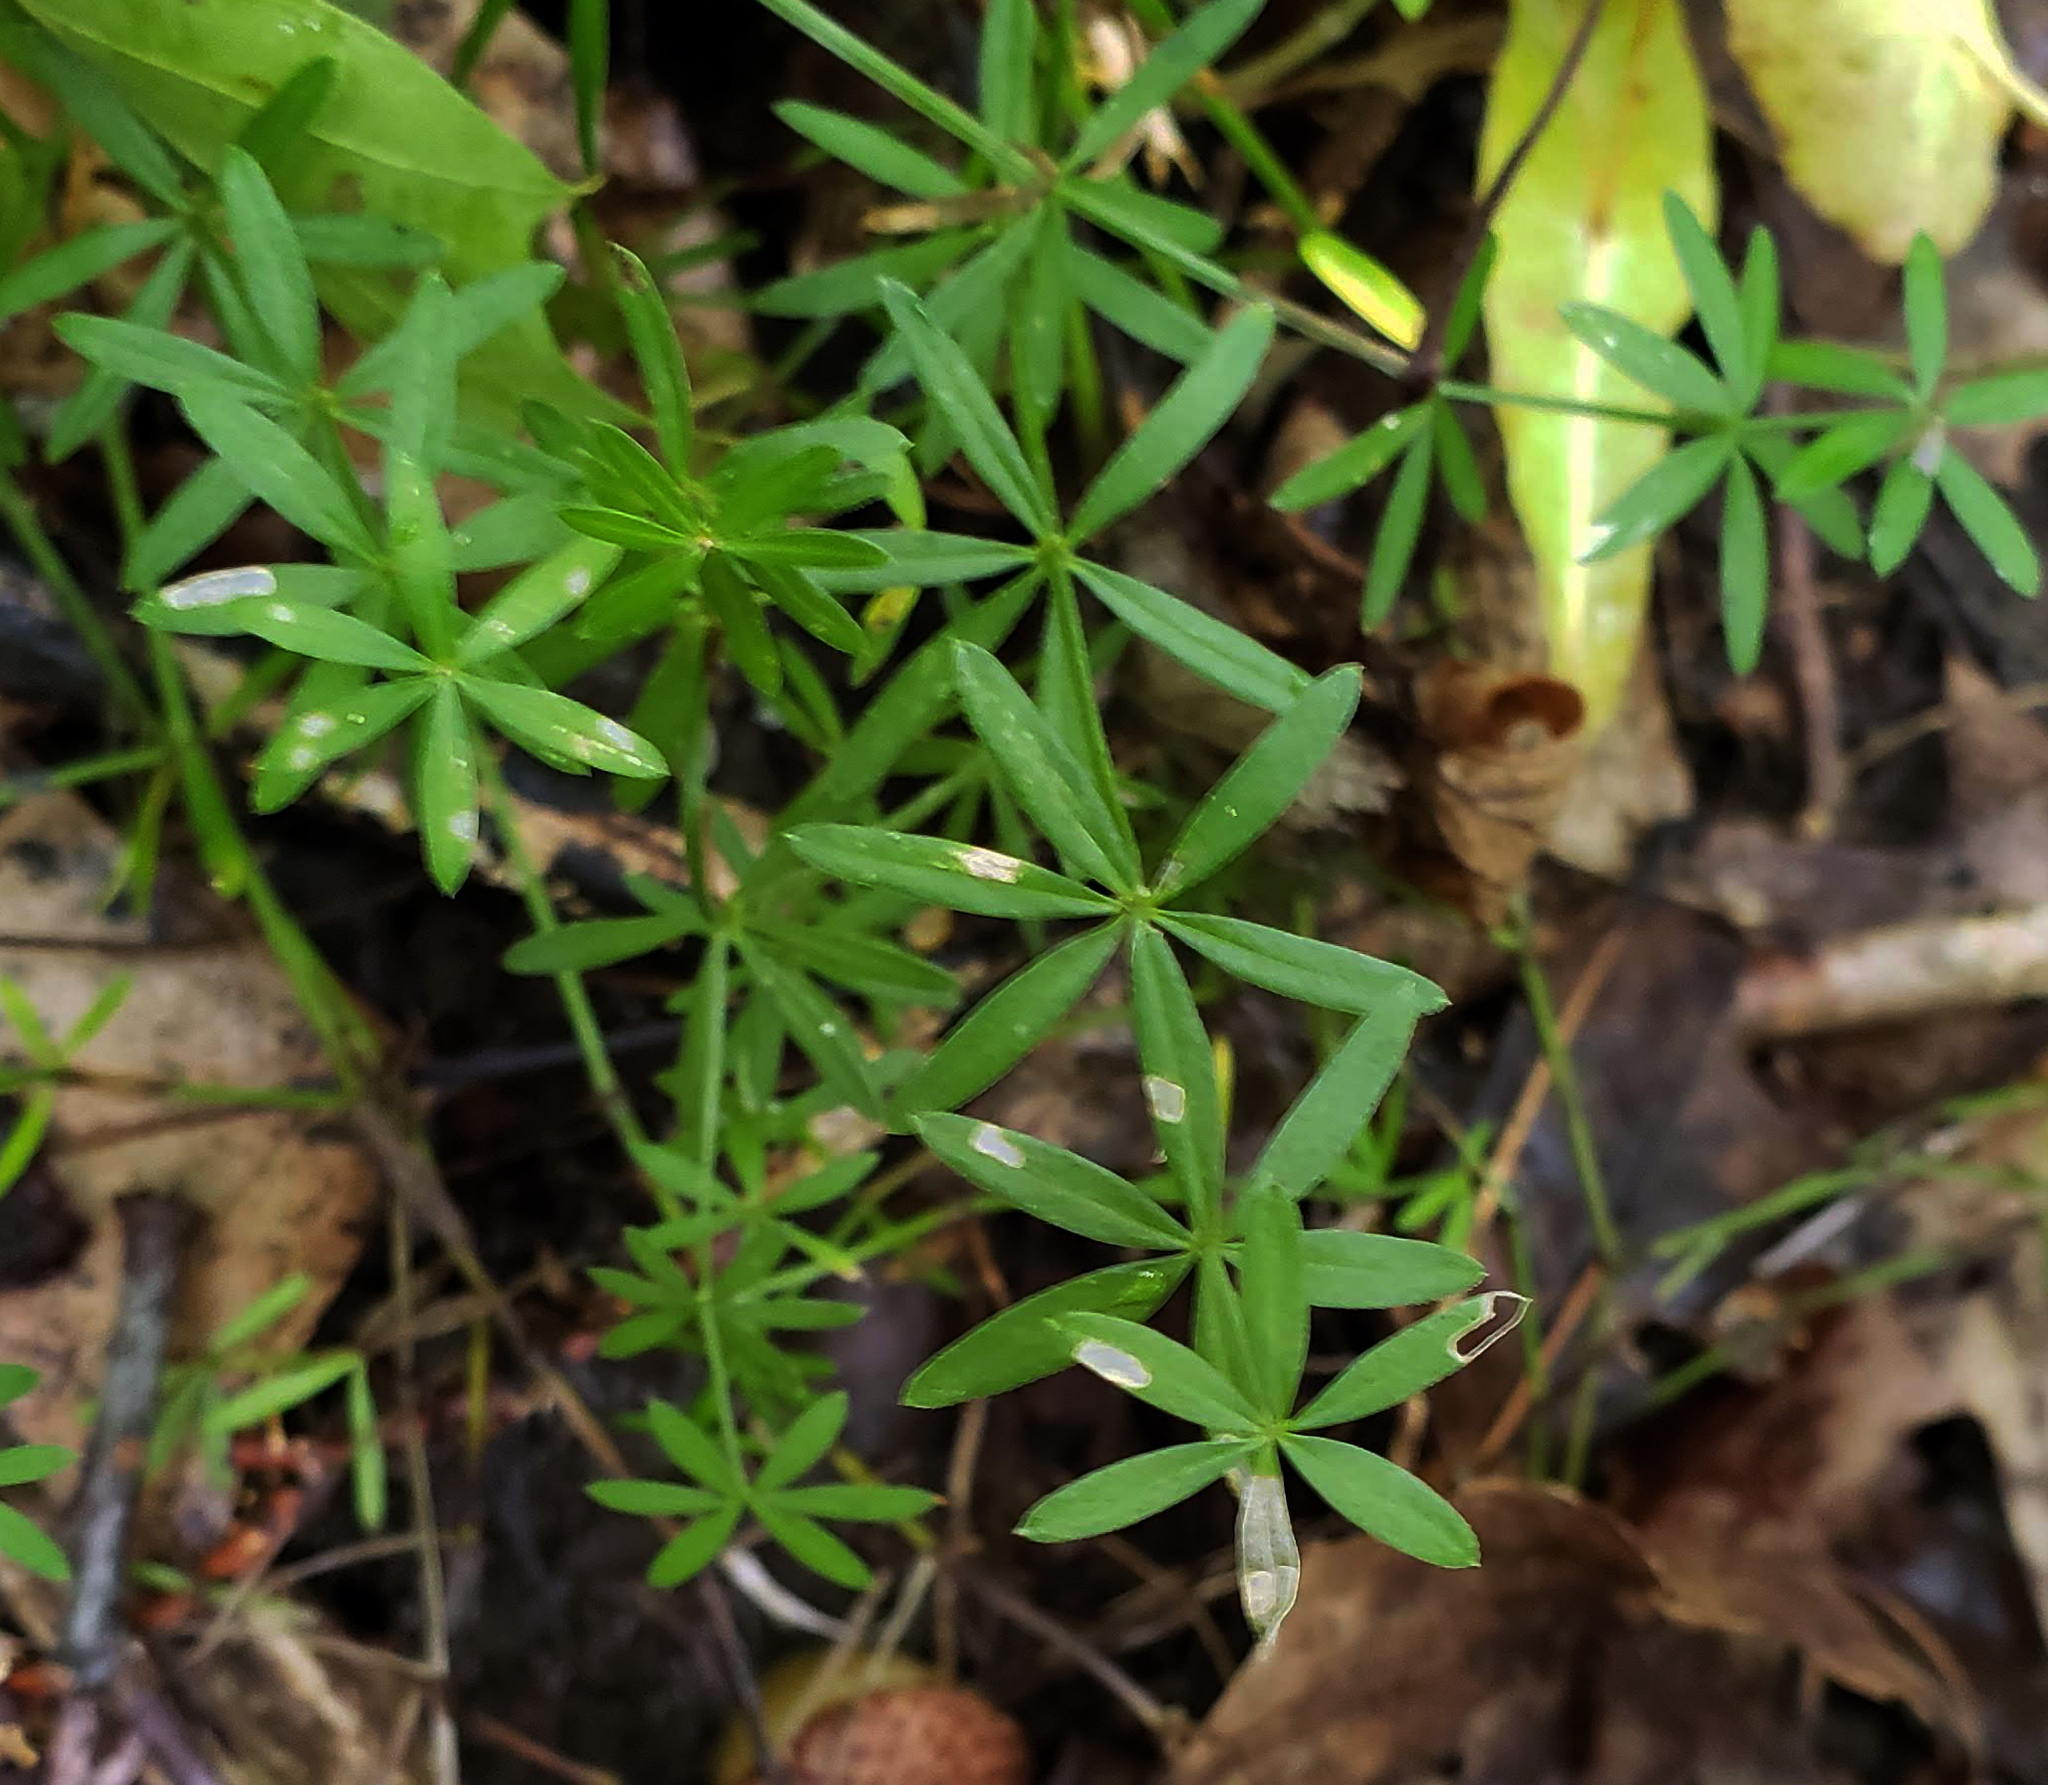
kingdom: Plantae
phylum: Tracheophyta
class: Magnoliopsida
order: Gentianales
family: Rubiaceae
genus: Galium
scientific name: Galium concinnum
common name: Shining bedstraw
